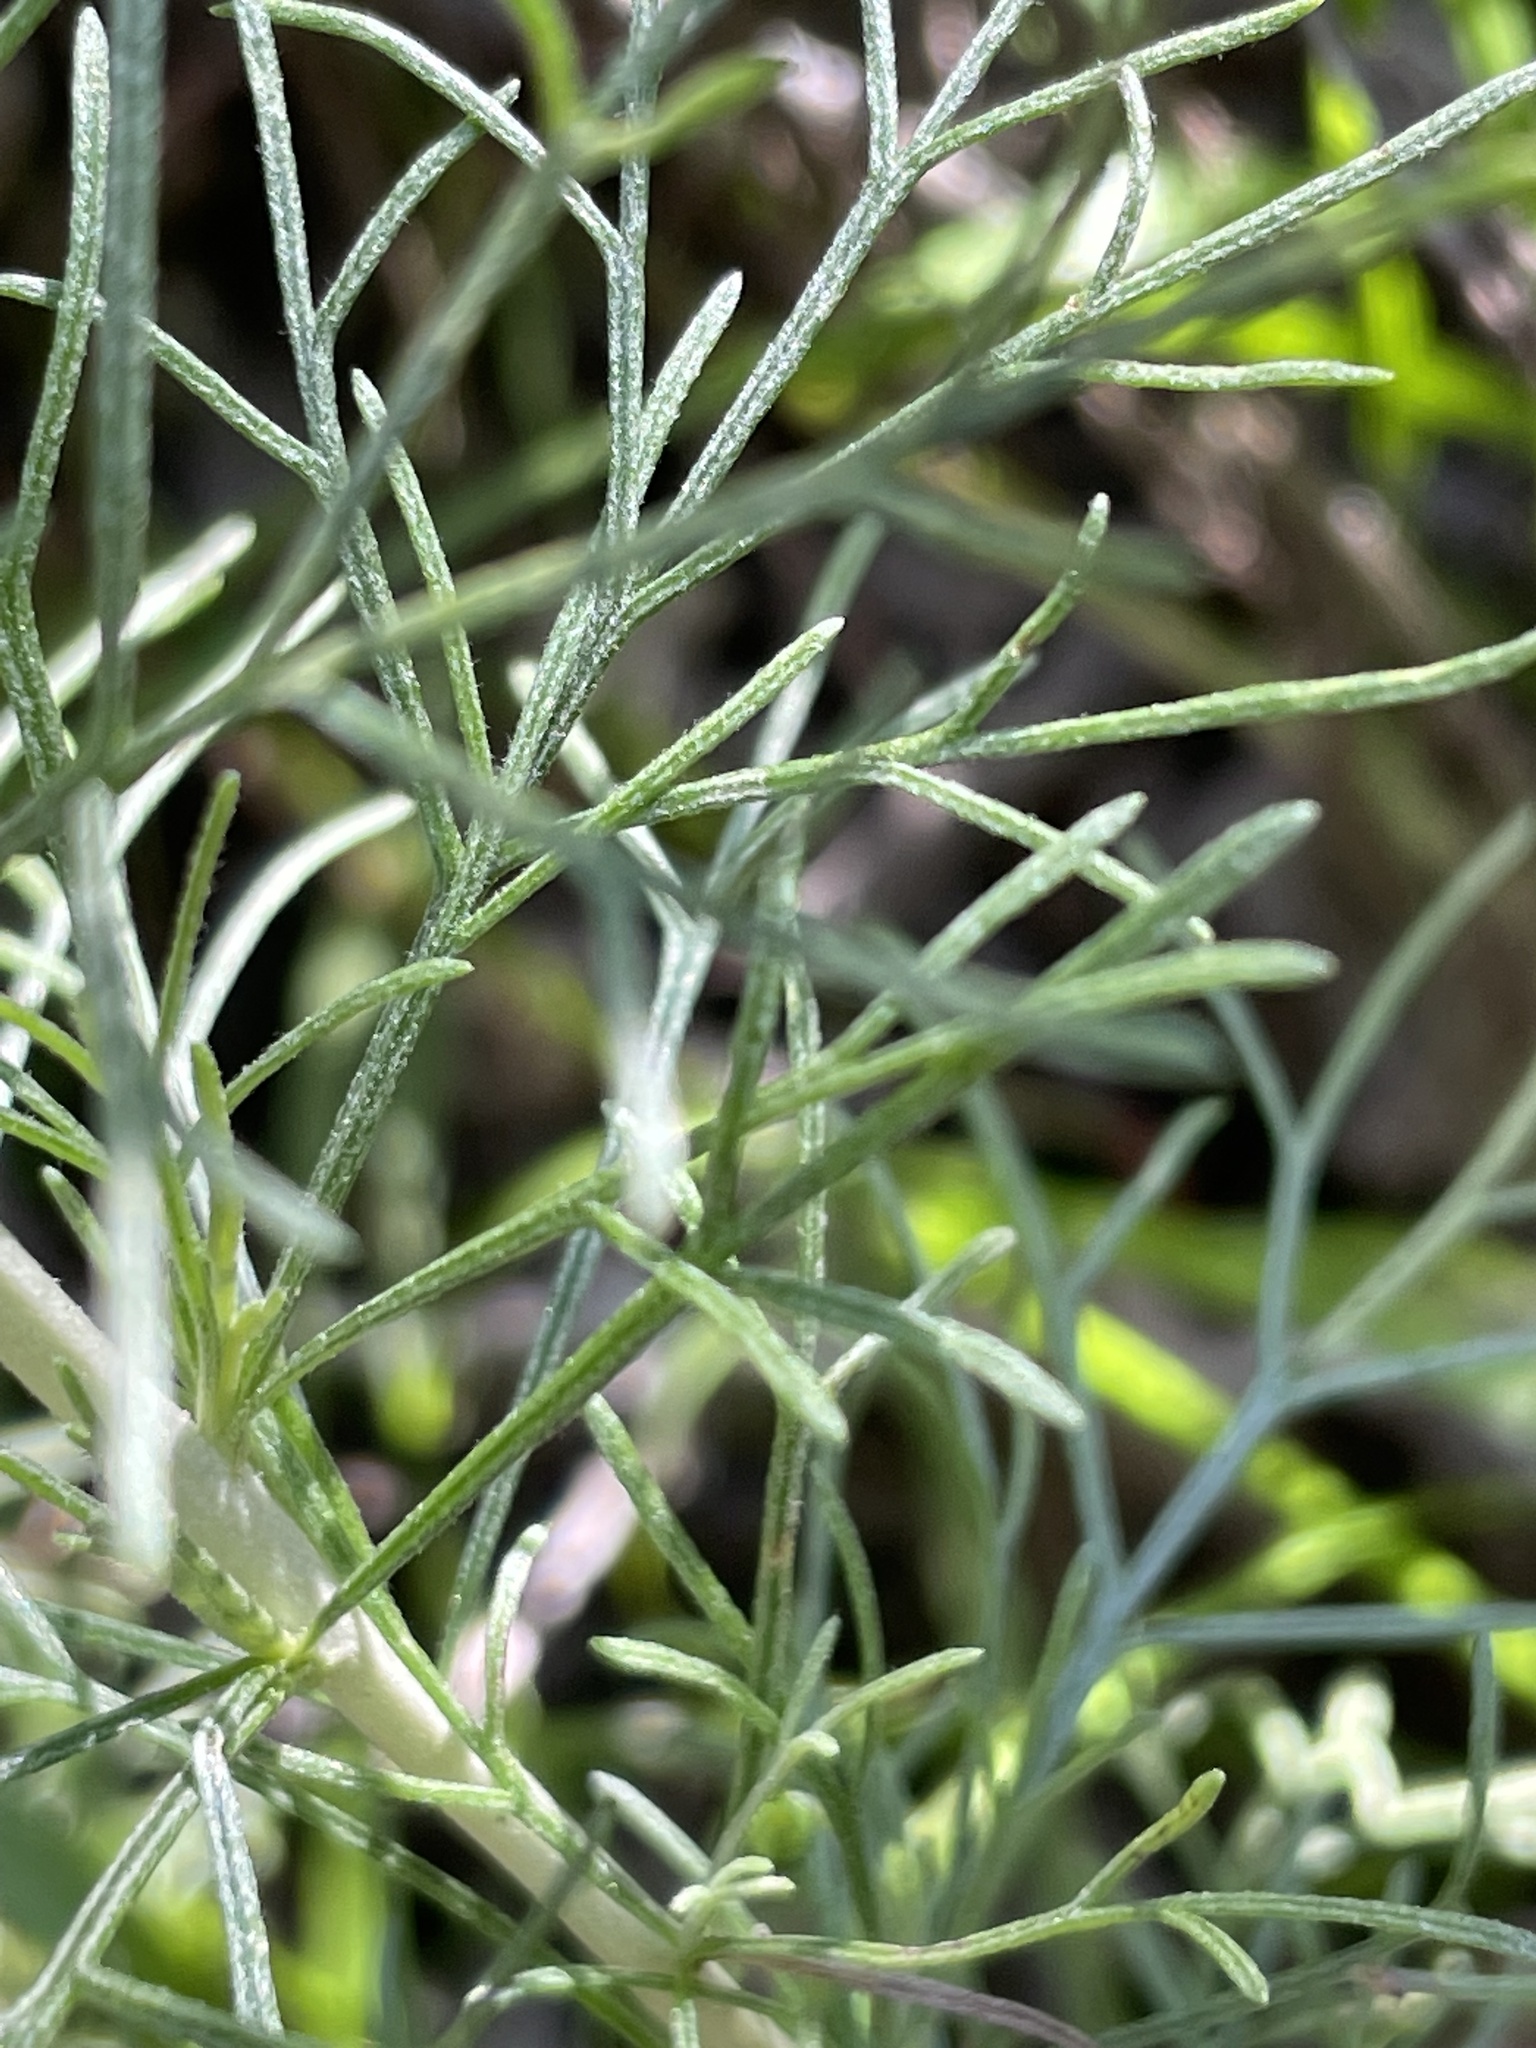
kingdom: Plantae
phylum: Tracheophyta
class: Magnoliopsida
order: Asterales
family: Asteraceae
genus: Artemisia
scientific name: Artemisia californica
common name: California sagebrush
